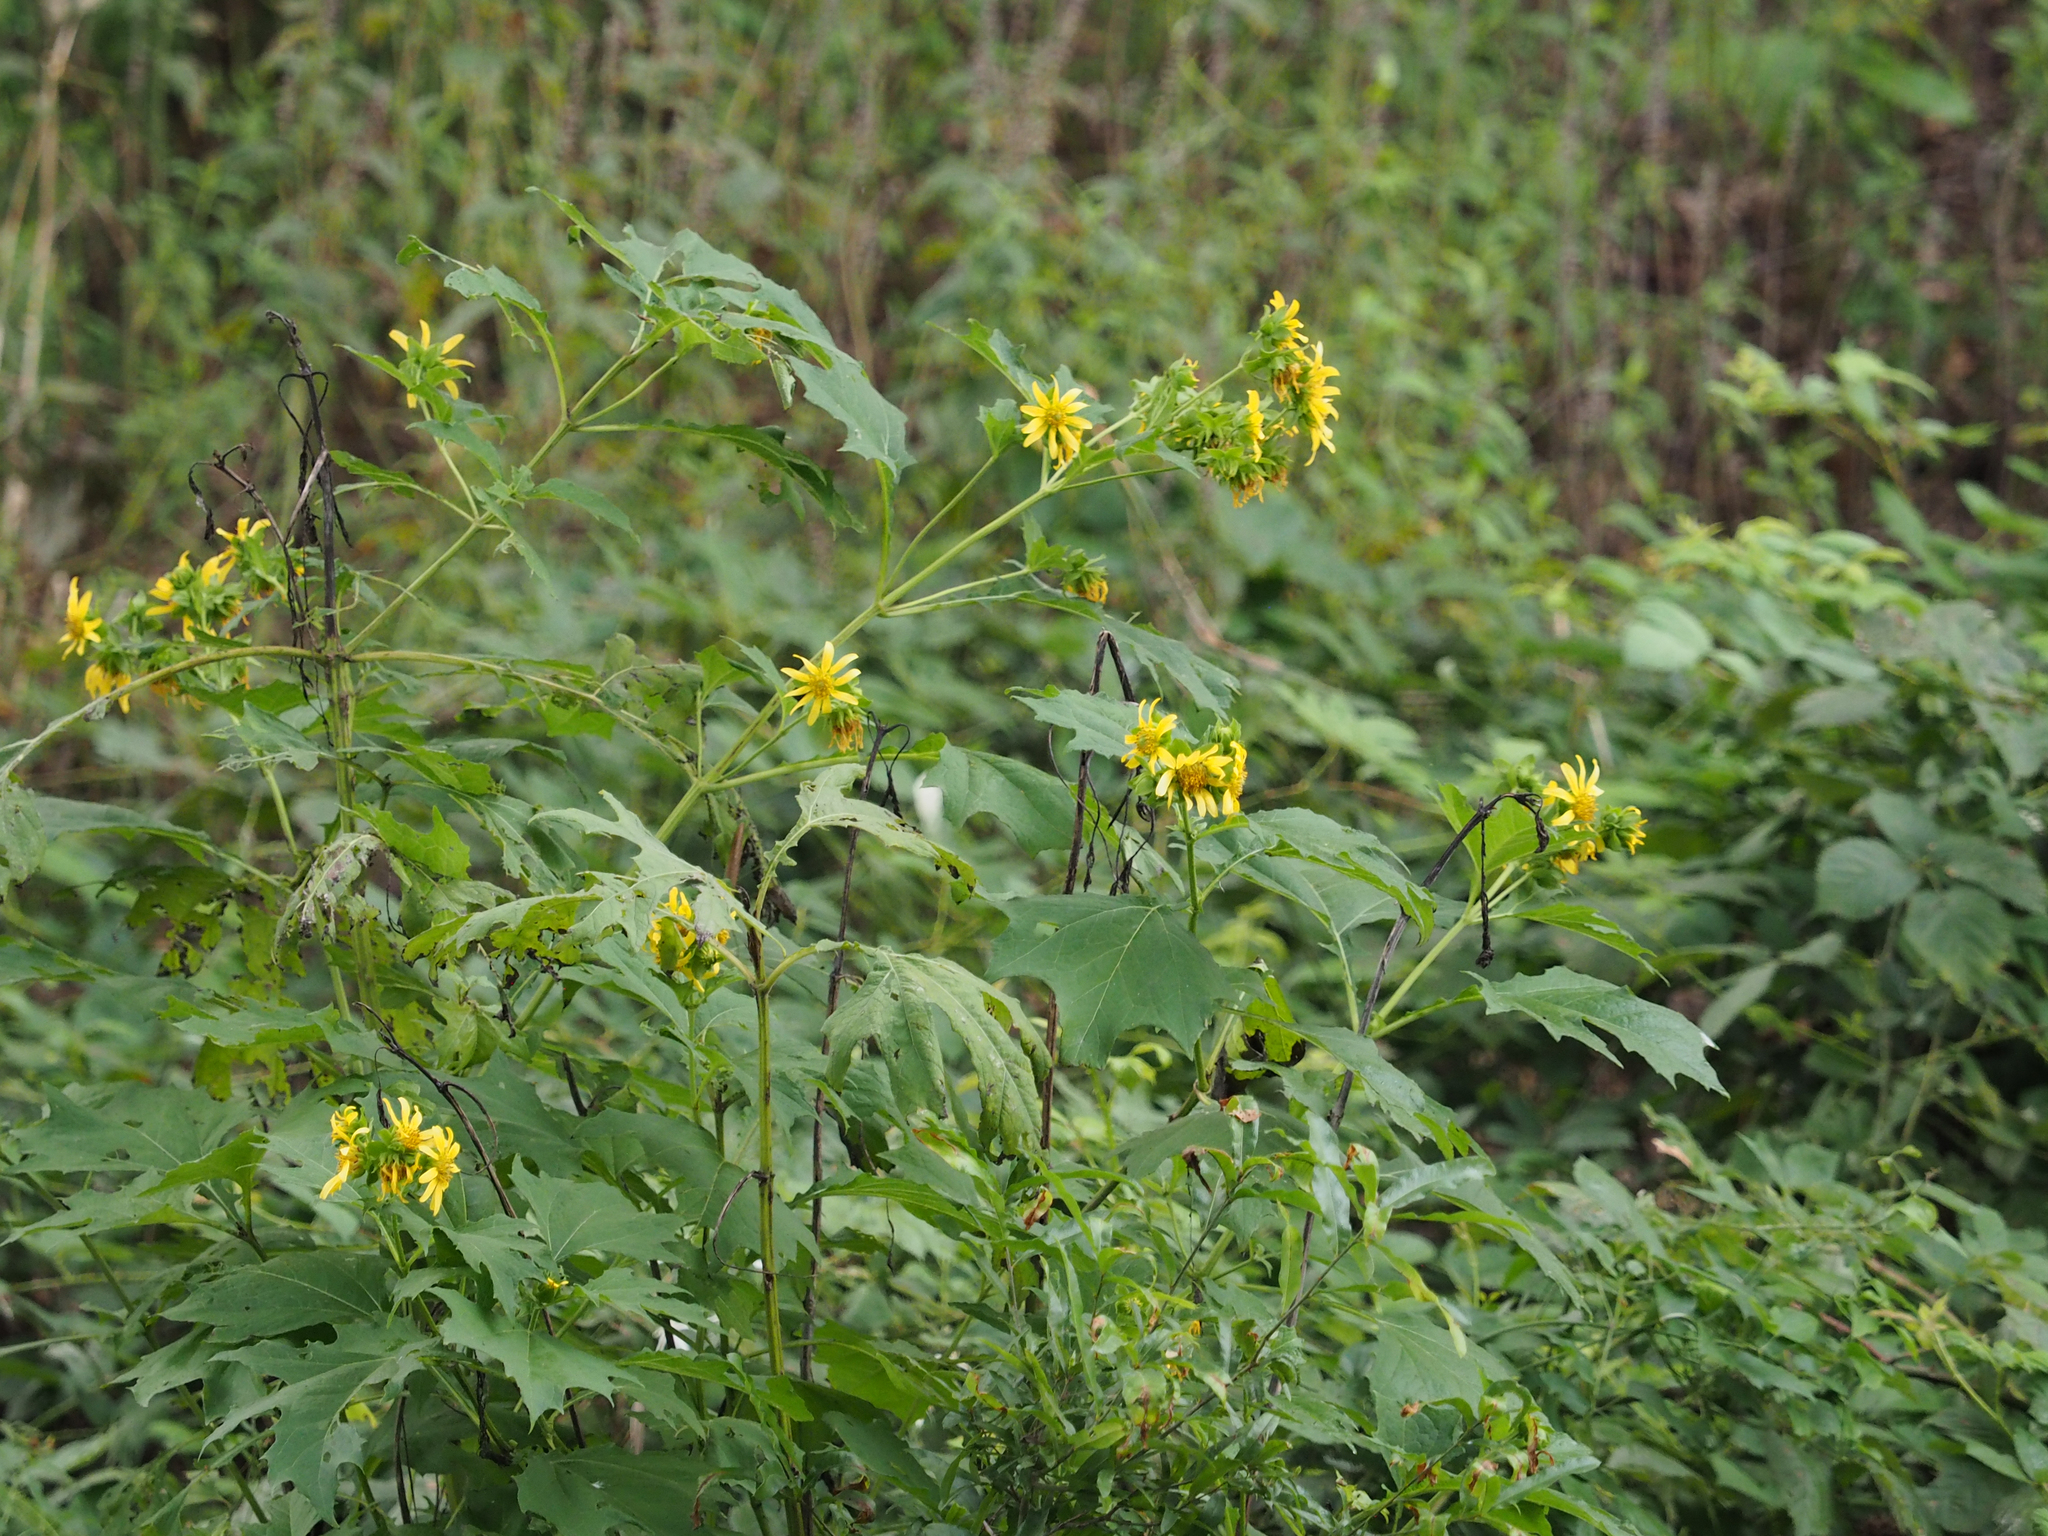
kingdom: Plantae
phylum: Tracheophyta
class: Magnoliopsida
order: Asterales
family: Asteraceae
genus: Smallanthus
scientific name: Smallanthus uvedalia
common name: Bear's-foot
